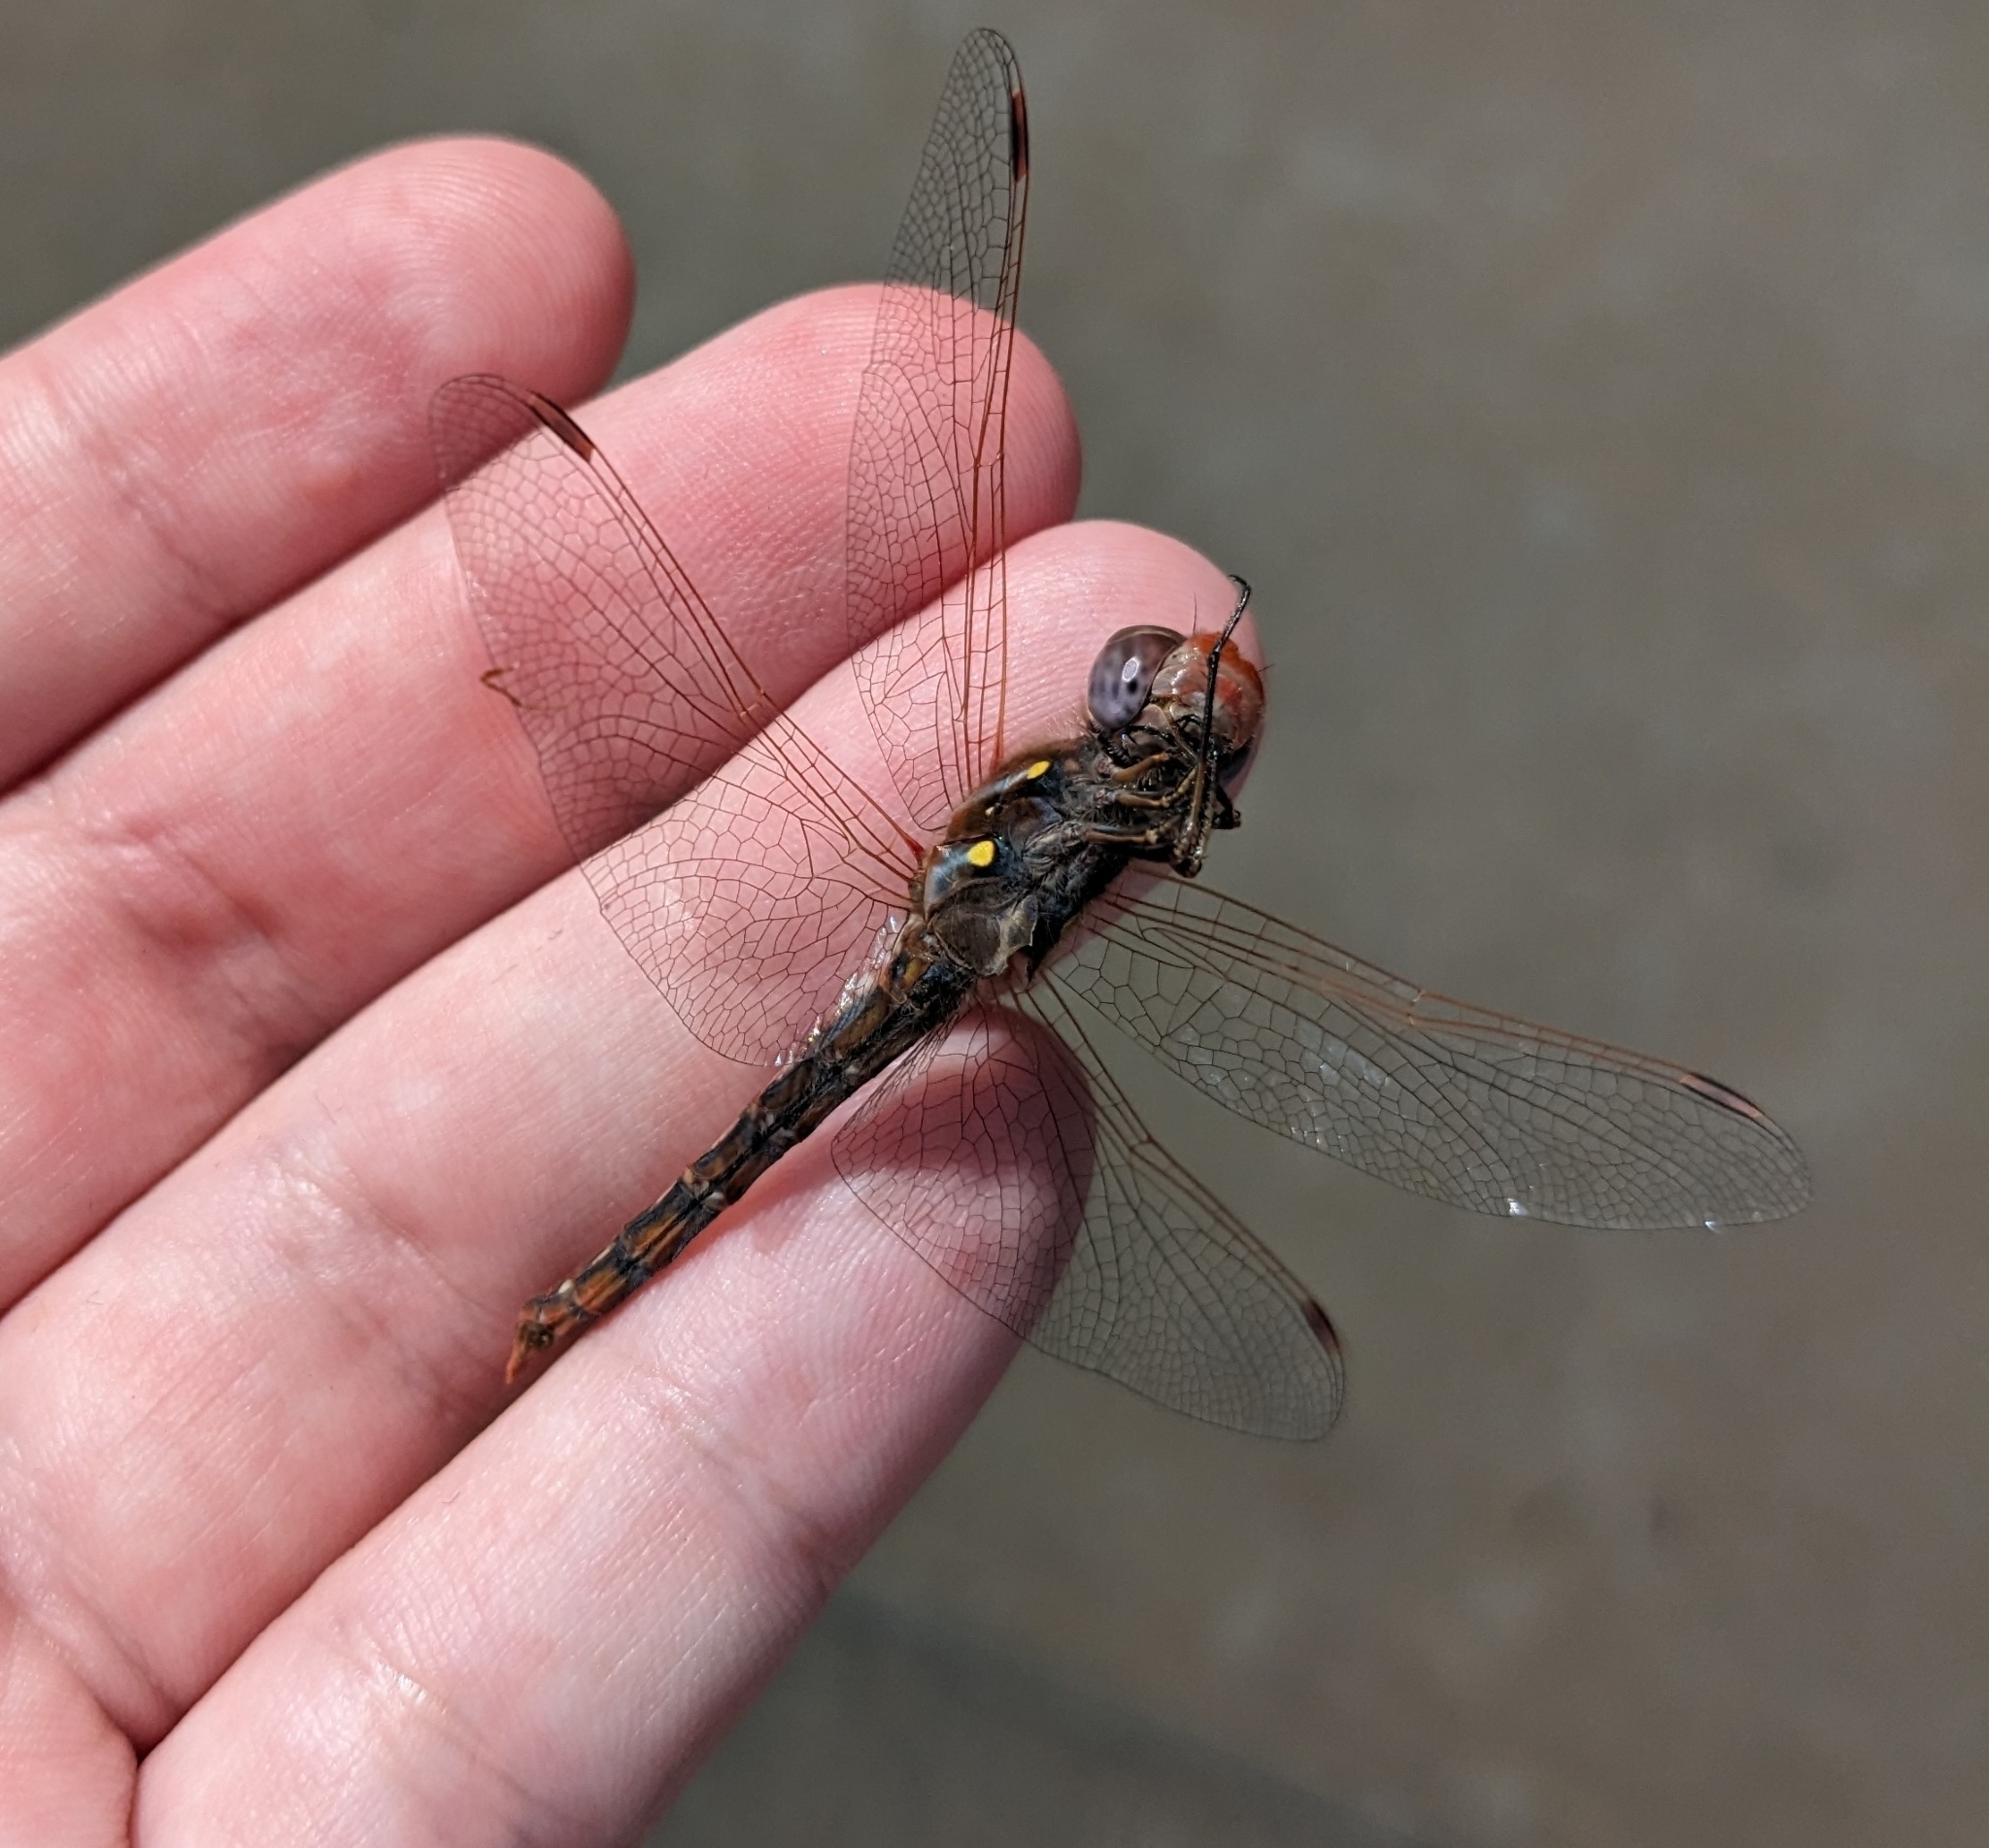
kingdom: Animalia
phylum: Arthropoda
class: Insecta
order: Odonata
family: Libellulidae
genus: Sympetrum
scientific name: Sympetrum corruptum
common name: Variegated meadowhawk
